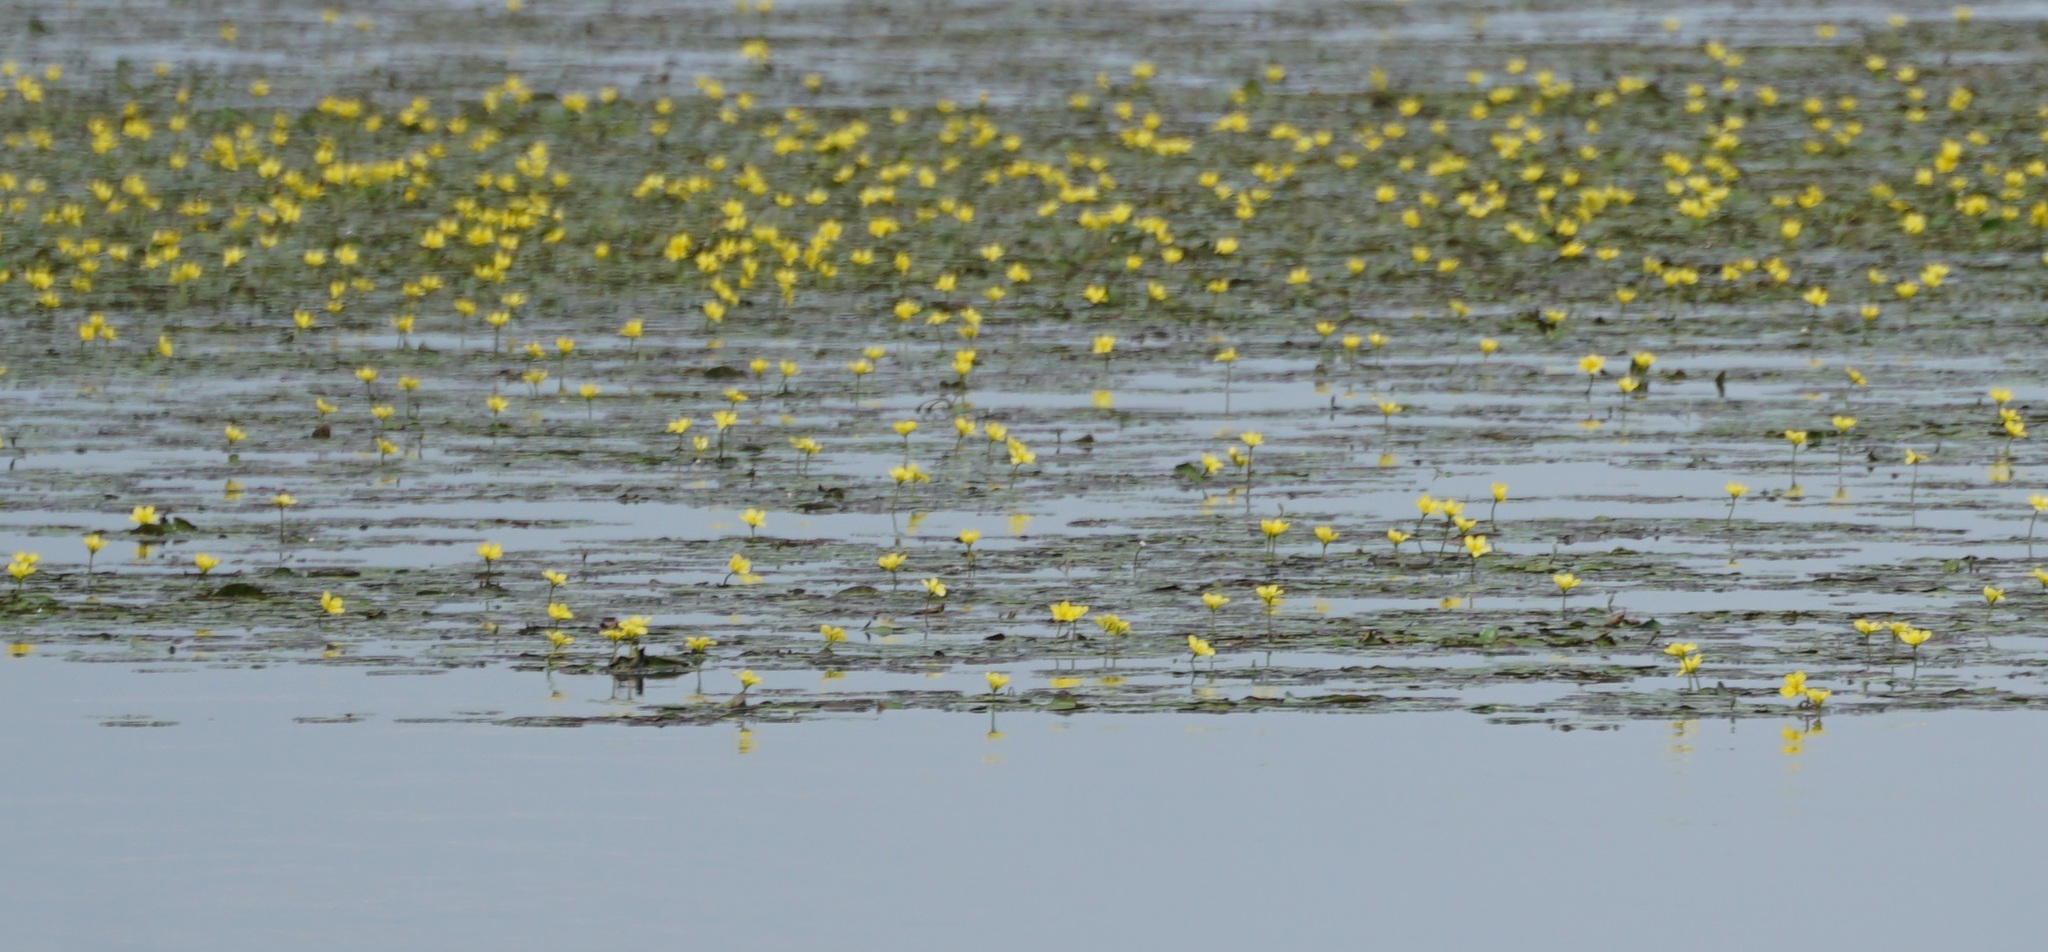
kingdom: Plantae
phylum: Tracheophyta
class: Magnoliopsida
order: Asterales
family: Menyanthaceae
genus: Nymphoides
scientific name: Nymphoides peltata
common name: Fringed water-lily
